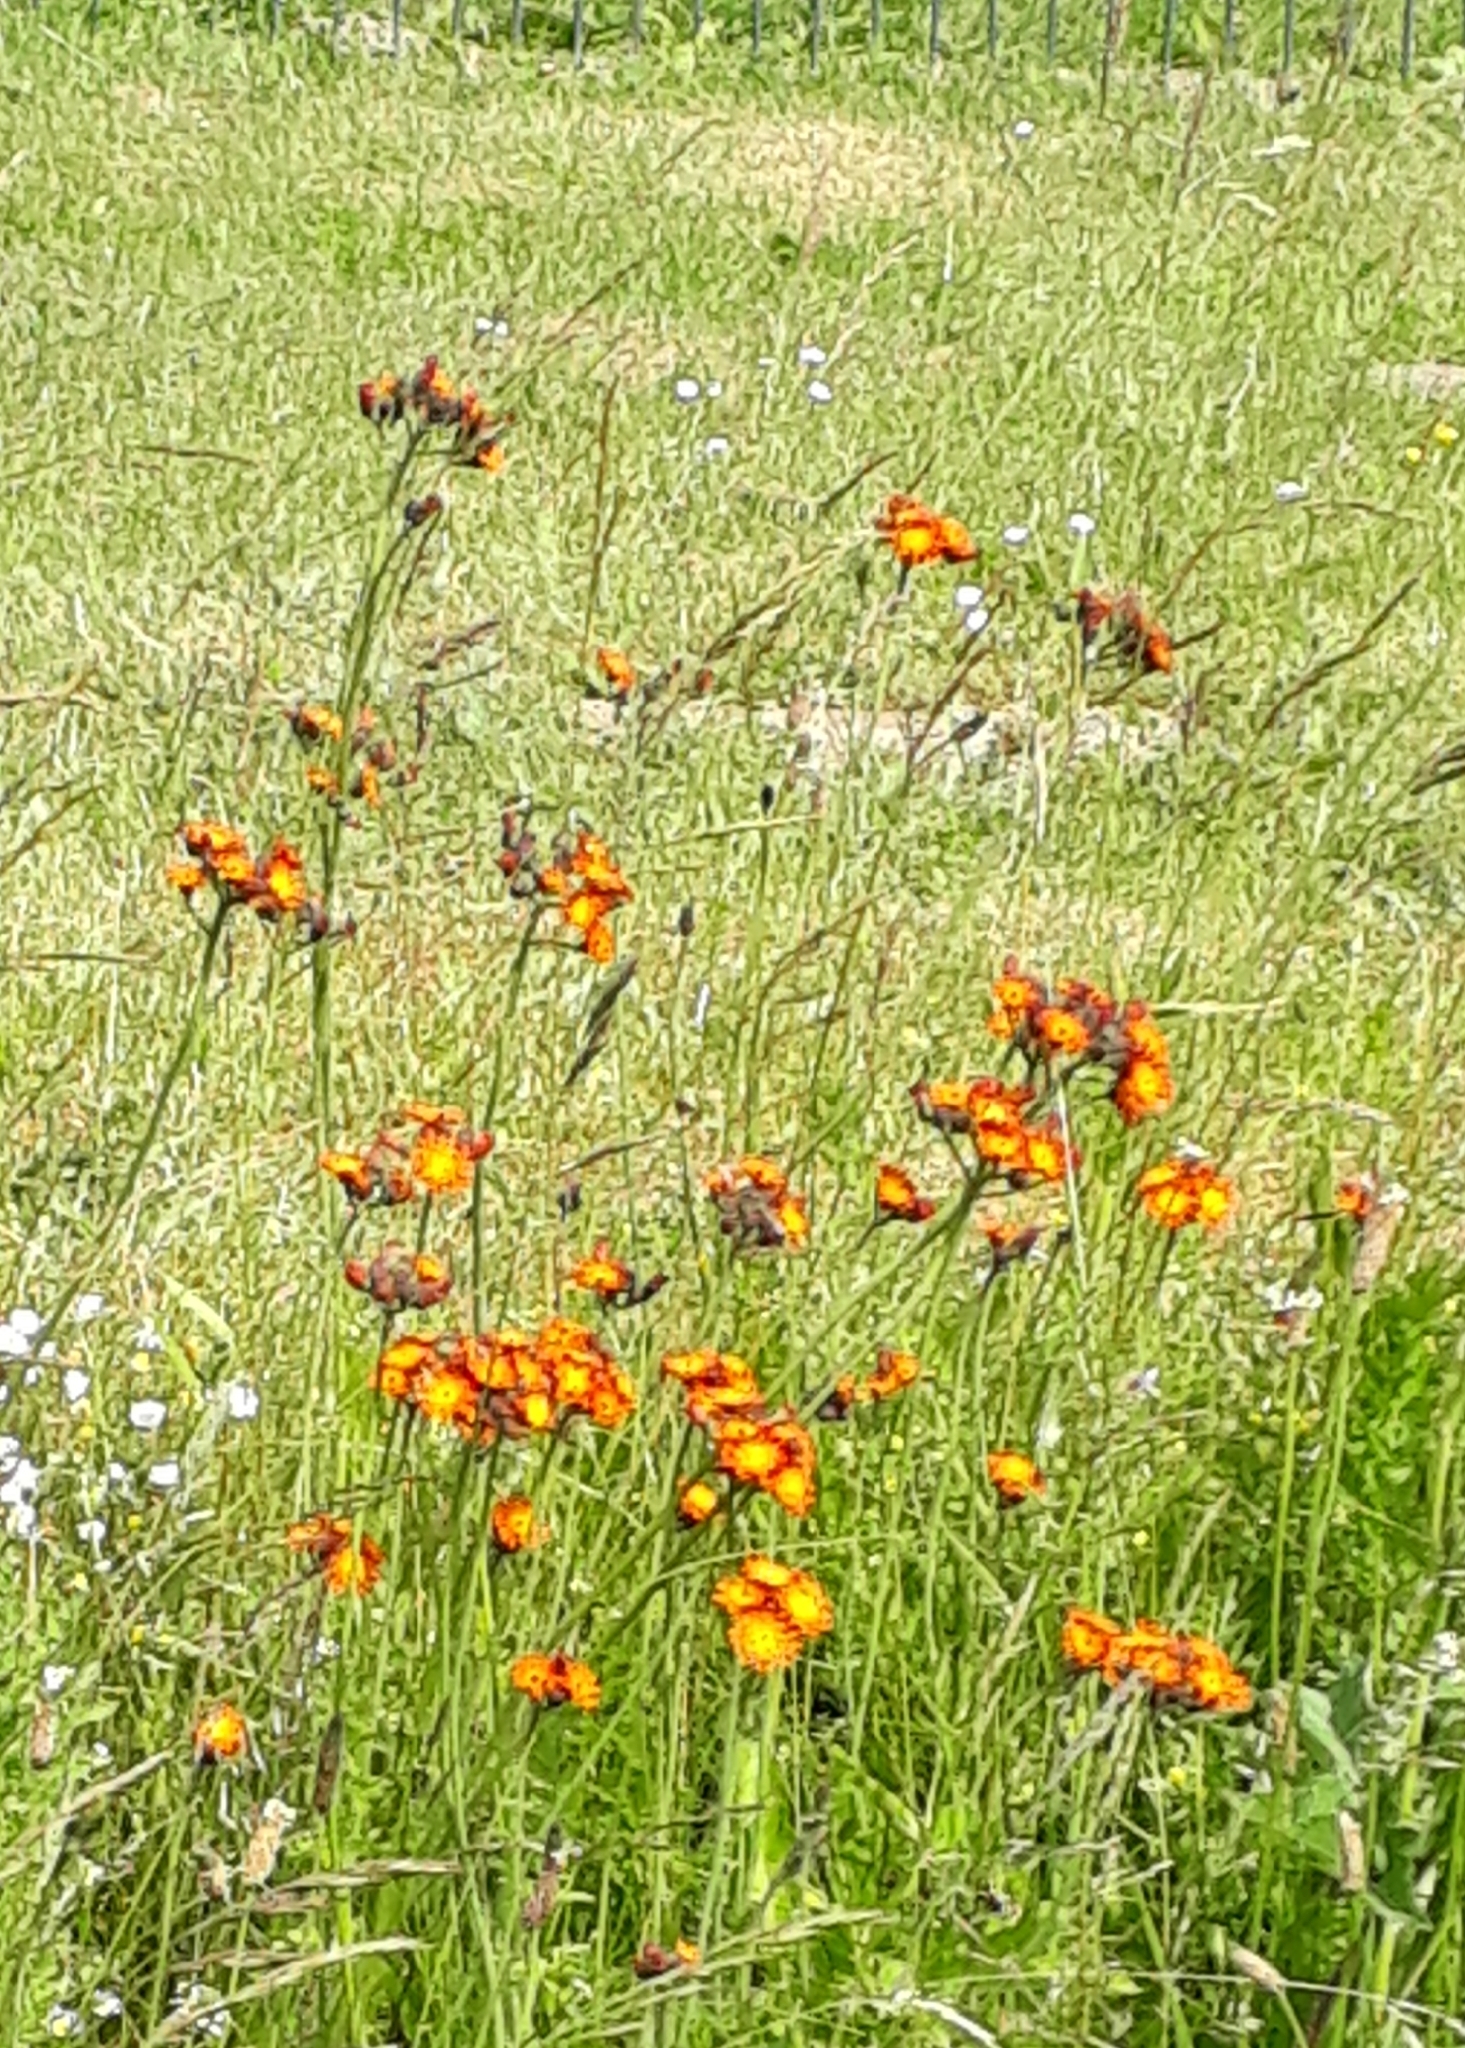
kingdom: Plantae
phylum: Tracheophyta
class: Magnoliopsida
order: Asterales
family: Asteraceae
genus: Pilosella
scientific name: Pilosella aurantiaca
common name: Fox-and-cubs
